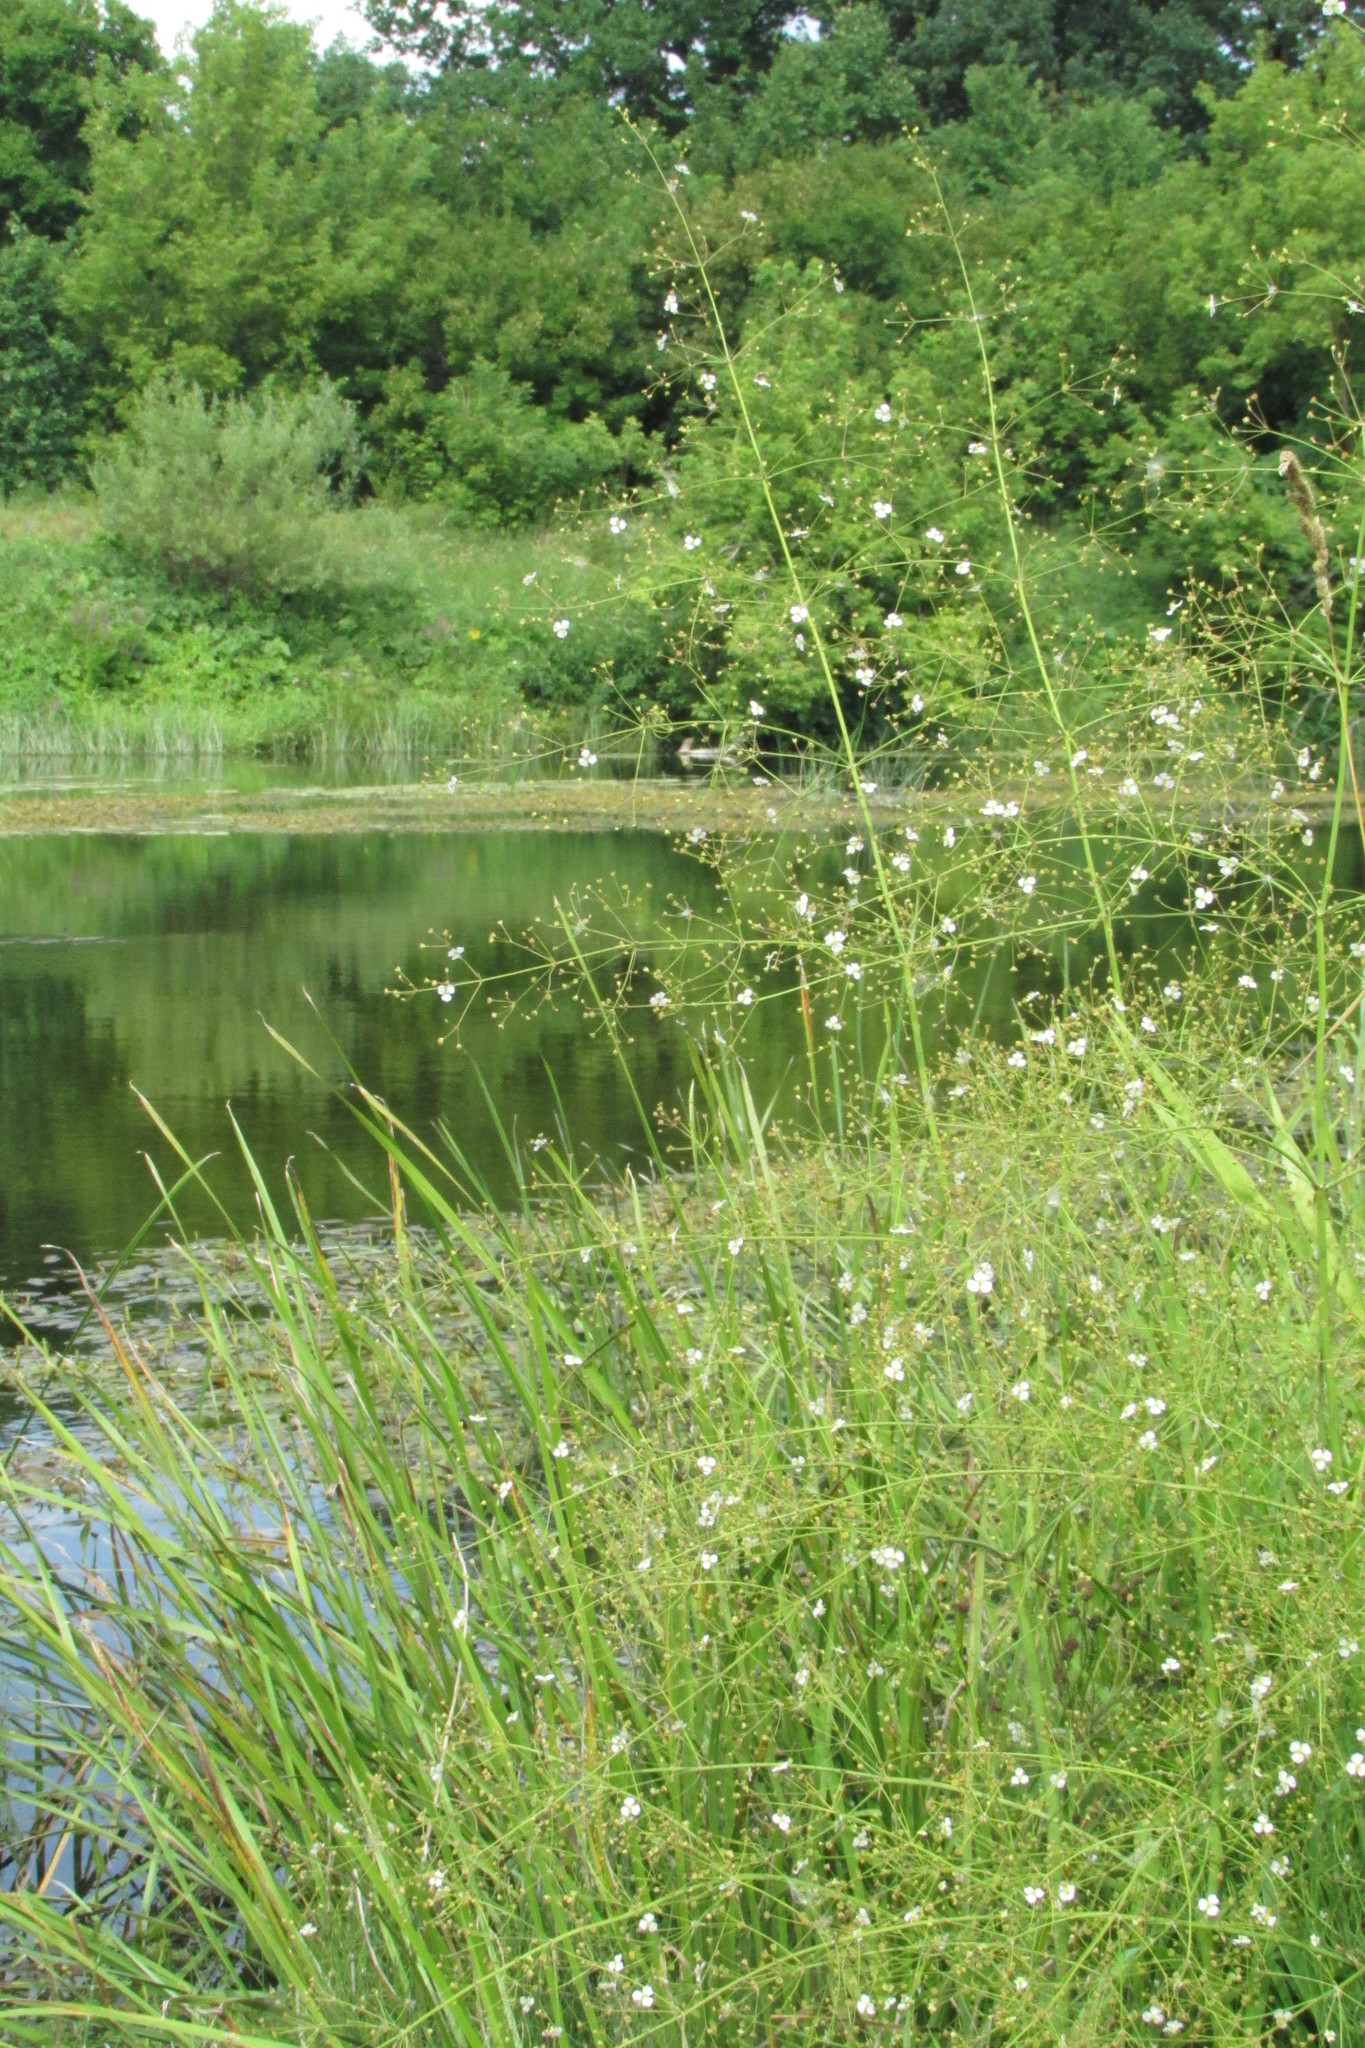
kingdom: Plantae
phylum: Tracheophyta
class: Liliopsida
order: Alismatales
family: Alismataceae
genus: Alisma
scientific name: Alisma plantago-aquatica
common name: Water-plantain
